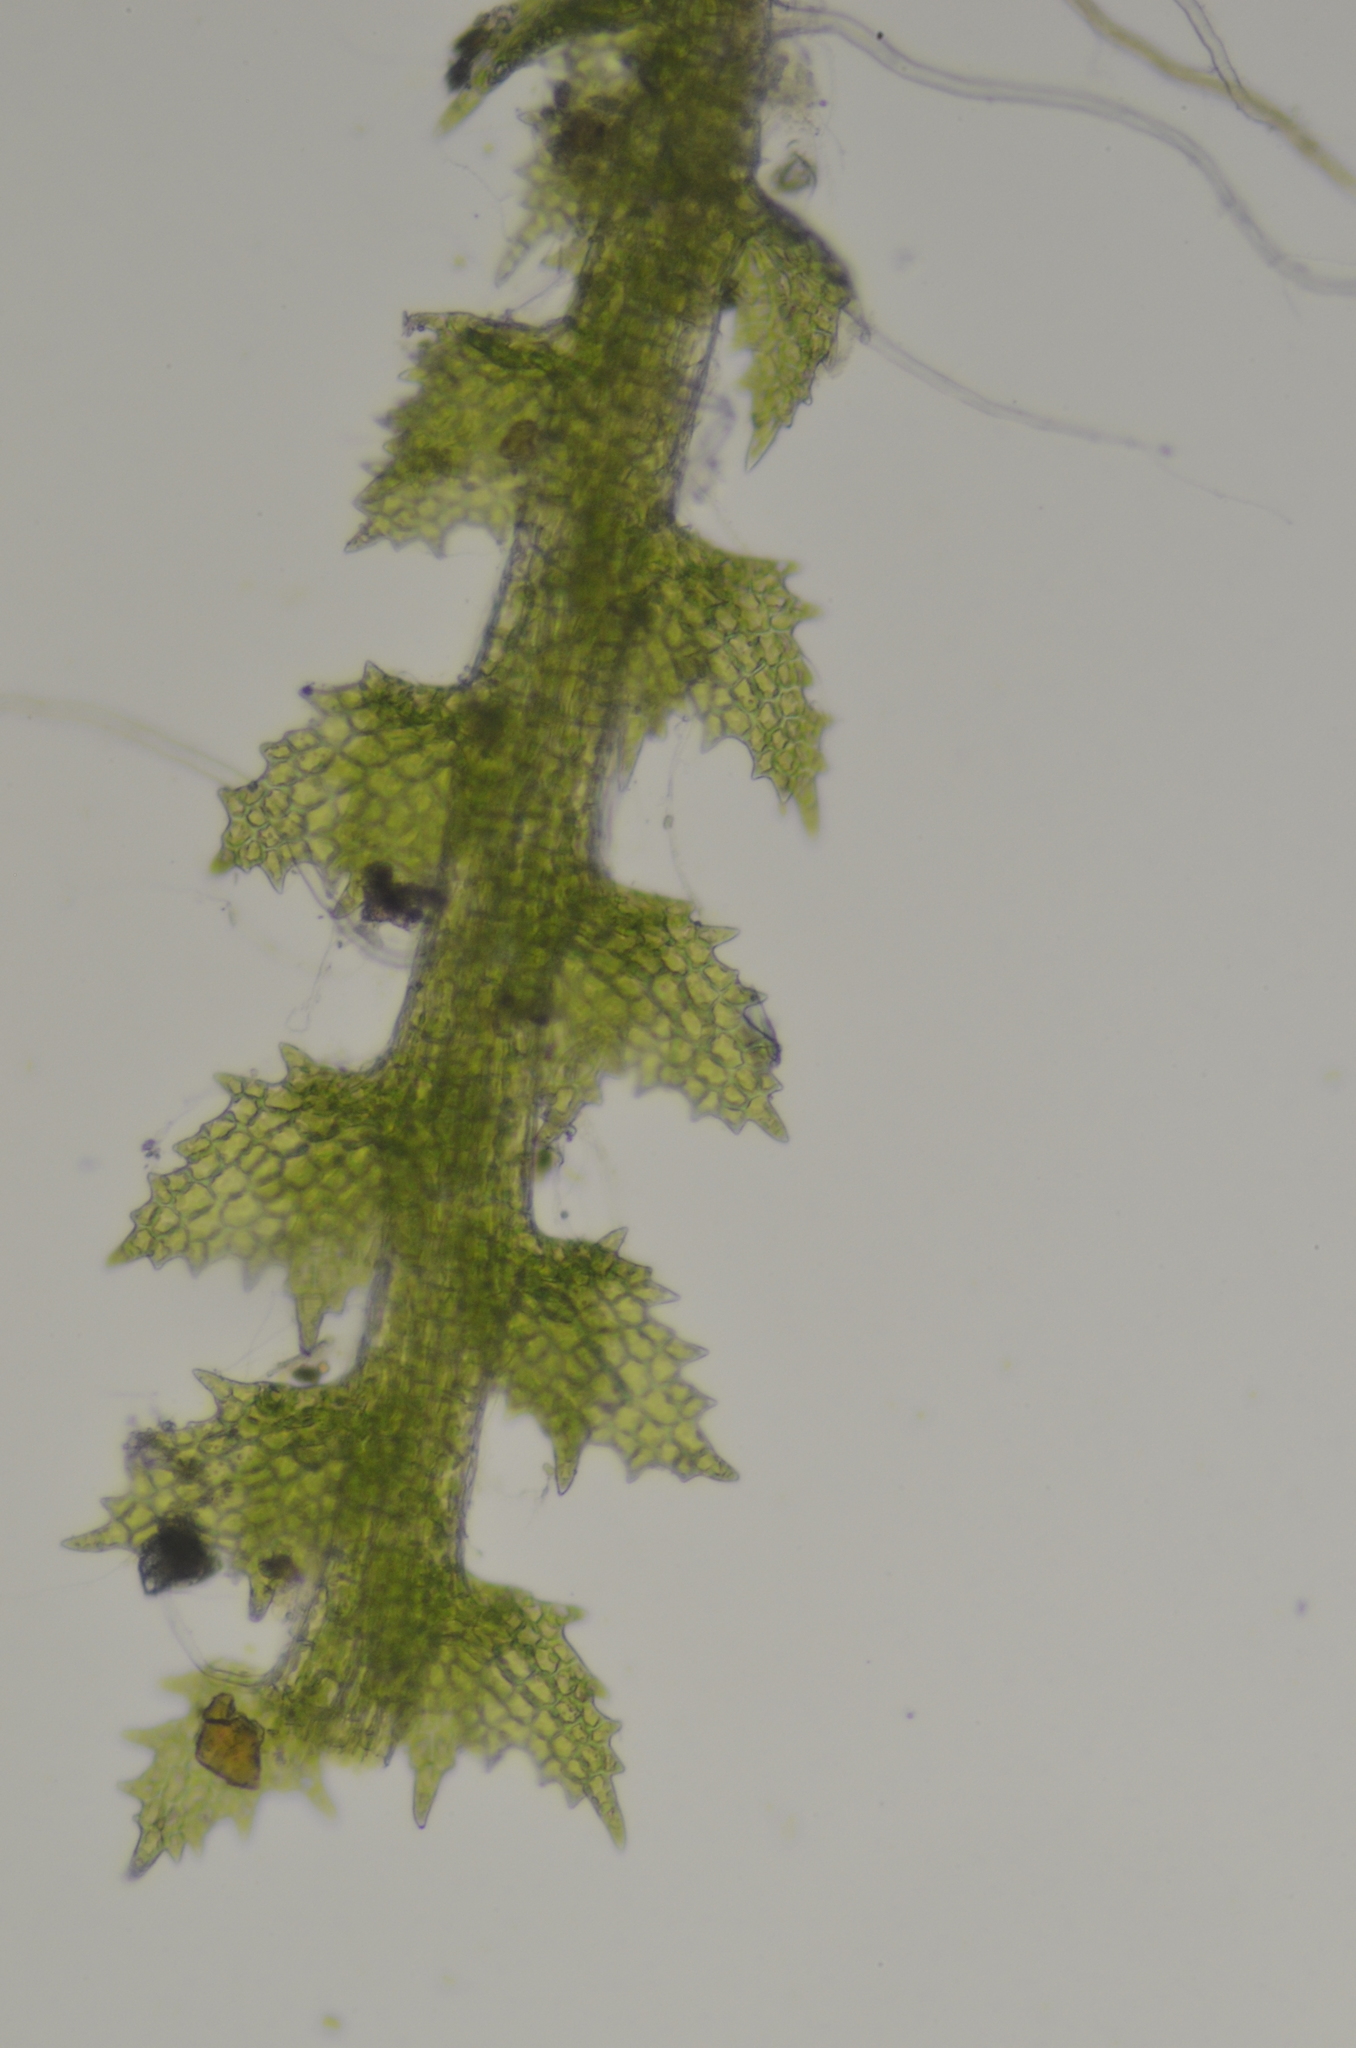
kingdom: Plantae
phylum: Marchantiophyta
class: Jungermanniopsida
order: Jungermanniales
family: Cephaloziellaceae
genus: Cephaloziella
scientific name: Cephaloziella turneri
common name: Turner's threadwort
